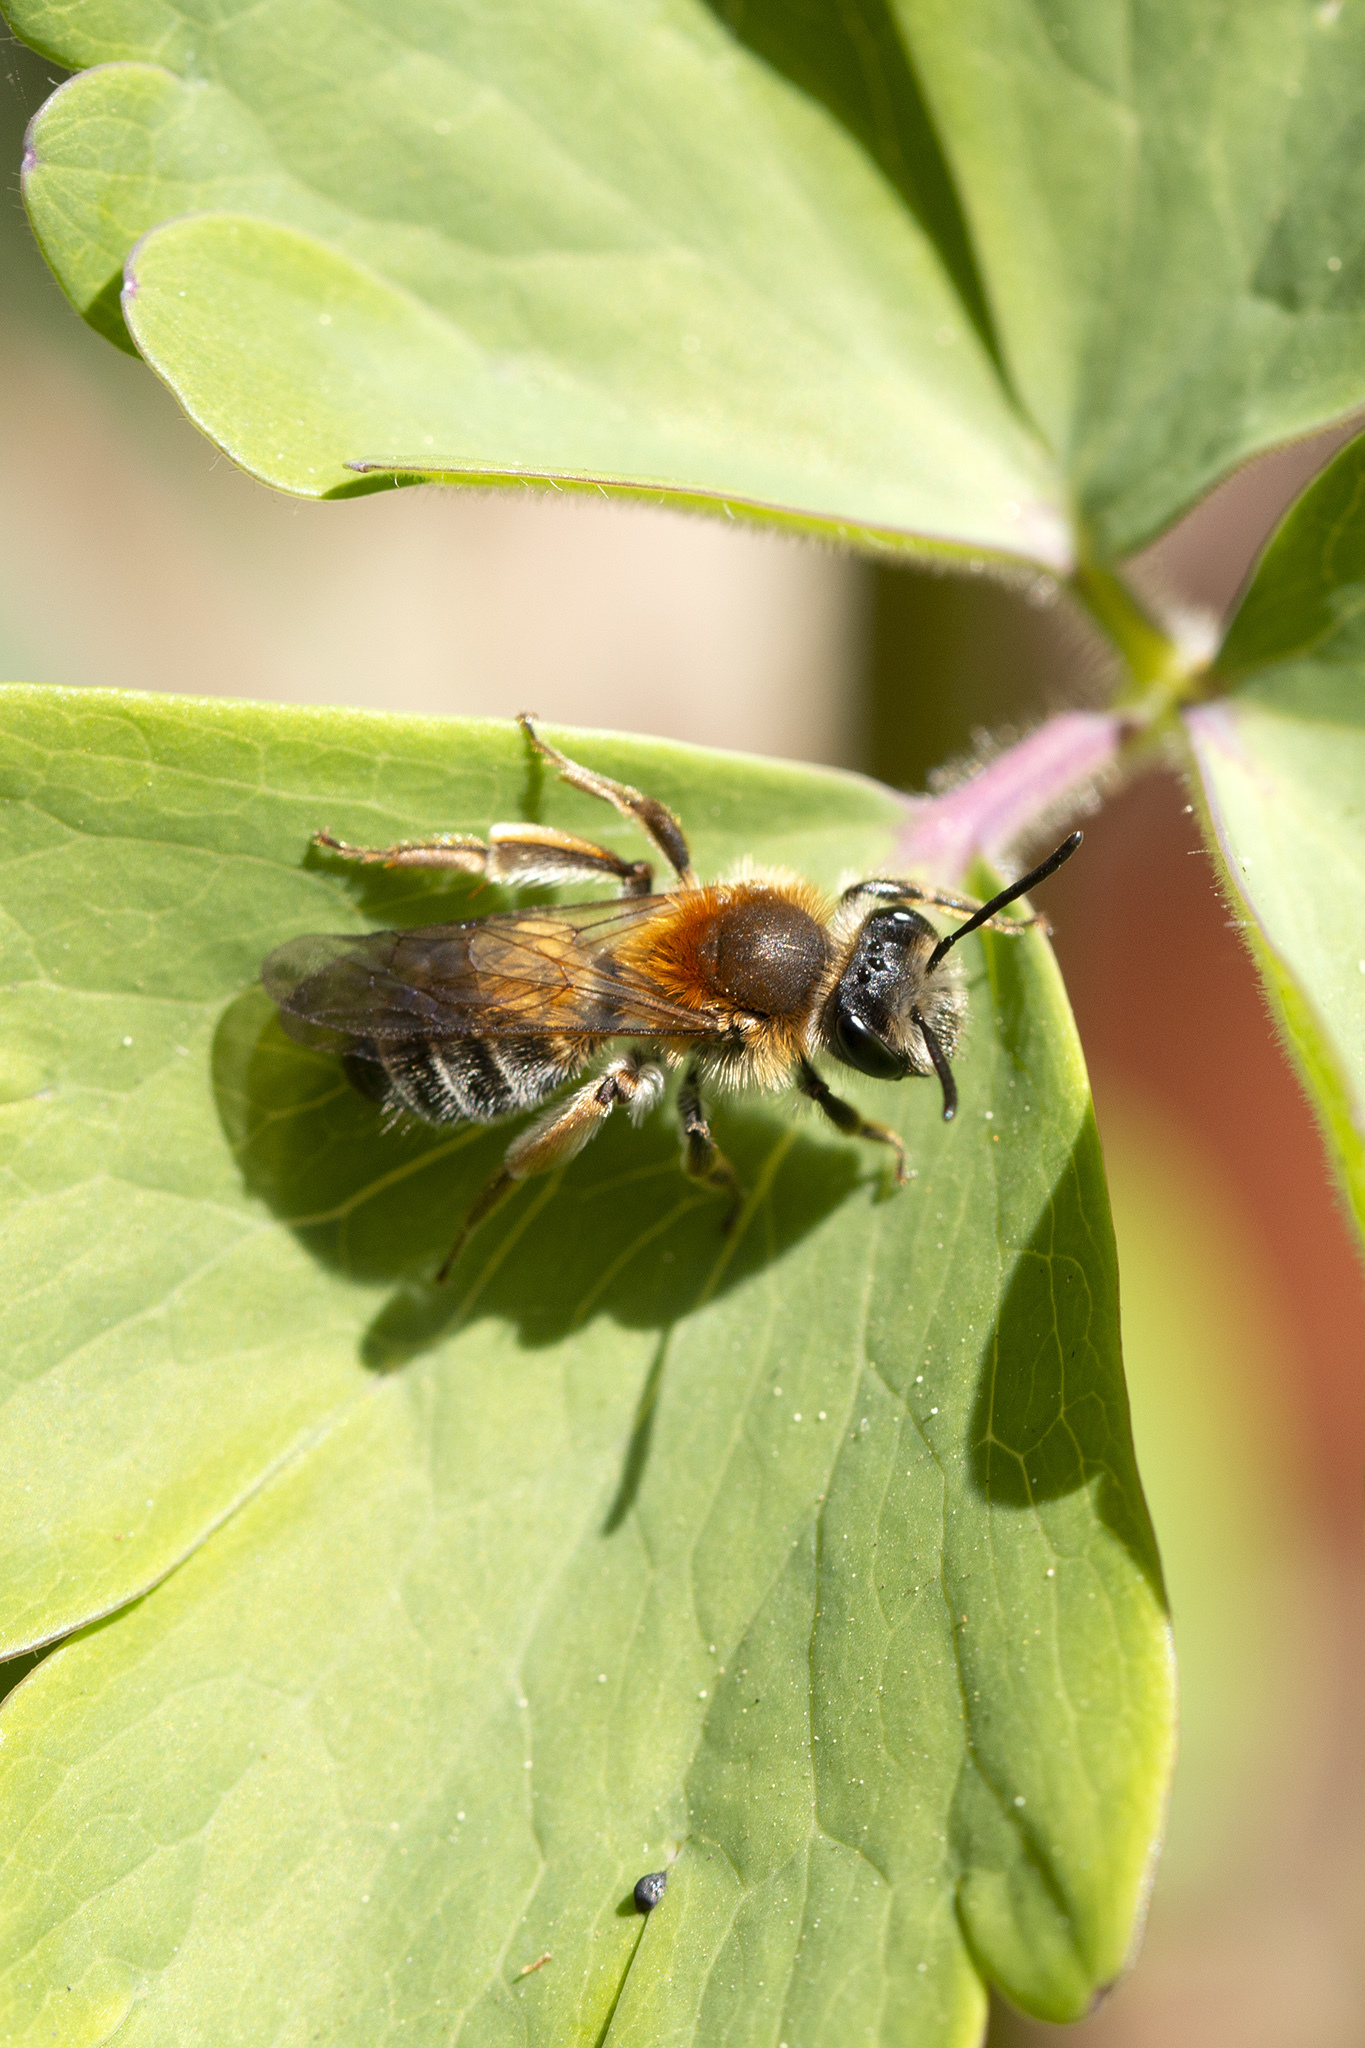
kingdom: Animalia
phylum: Arthropoda
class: Insecta
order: Hymenoptera
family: Andrenidae
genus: Andrena
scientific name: Andrena haemorrhoa
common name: Early mining bee
